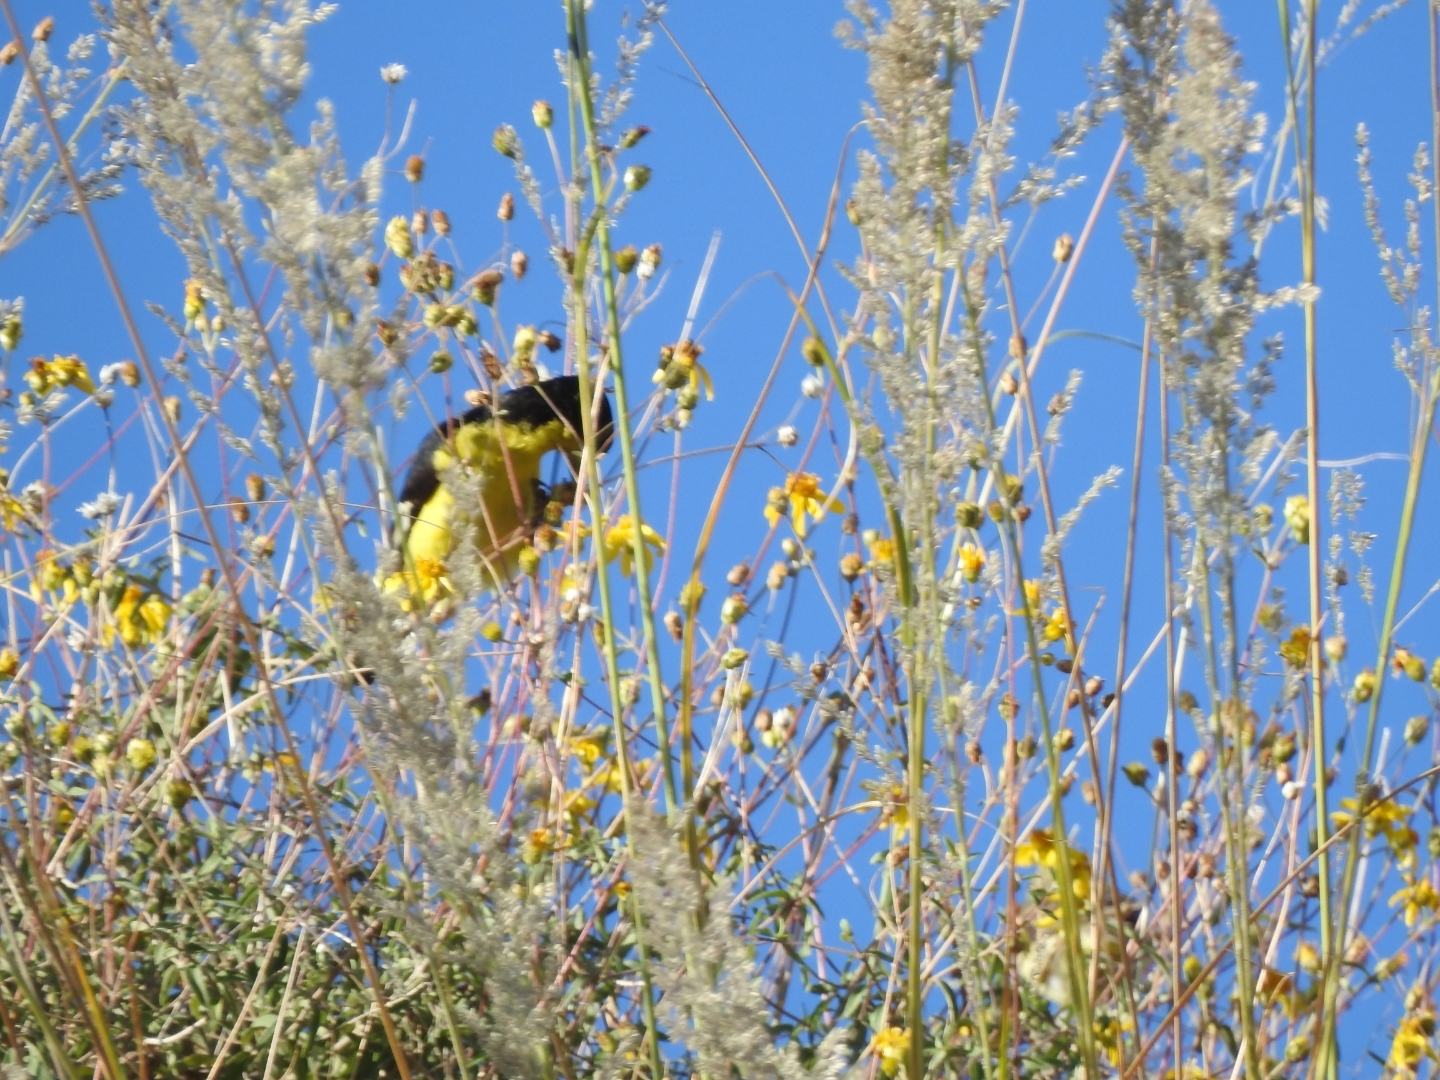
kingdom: Animalia
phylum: Chordata
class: Aves
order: Passeriformes
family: Fringillidae
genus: Spinus
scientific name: Spinus psaltria
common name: Lesser goldfinch
